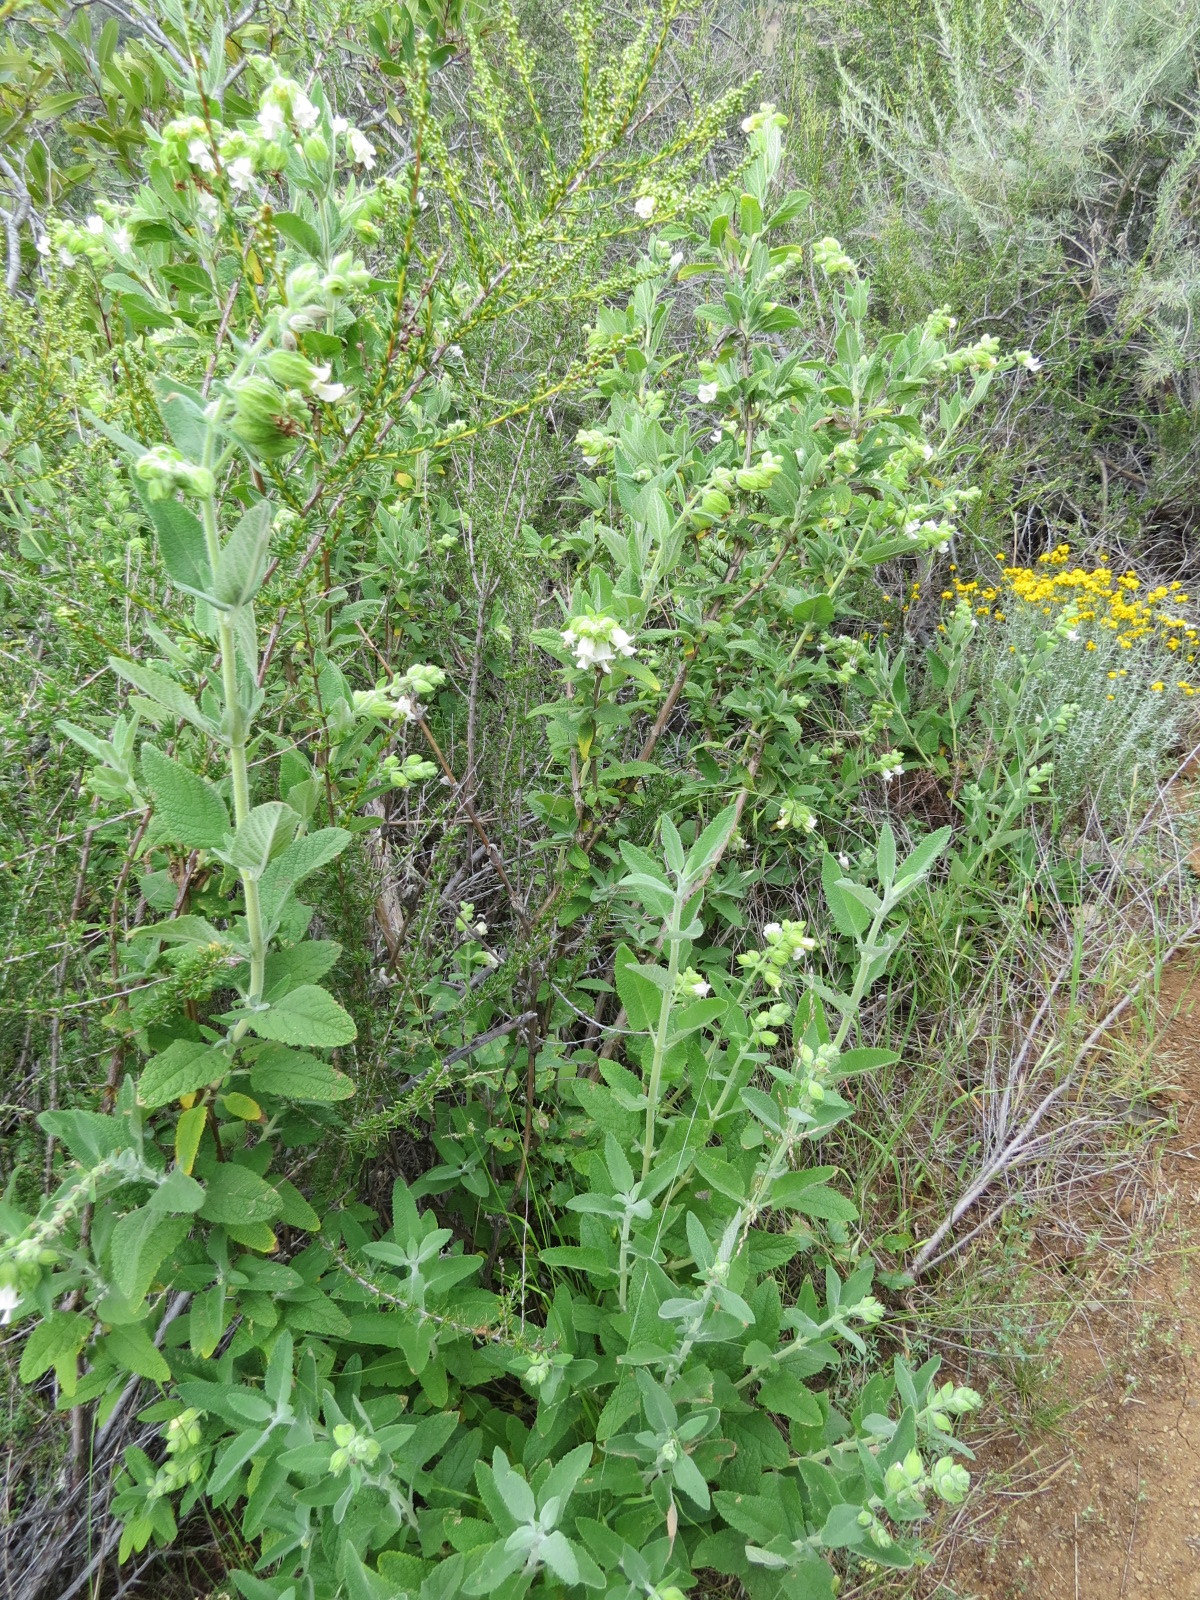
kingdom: Plantae
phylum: Tracheophyta
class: Magnoliopsida
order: Lamiales
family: Lamiaceae
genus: Lepechinia
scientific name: Lepechinia calycina
